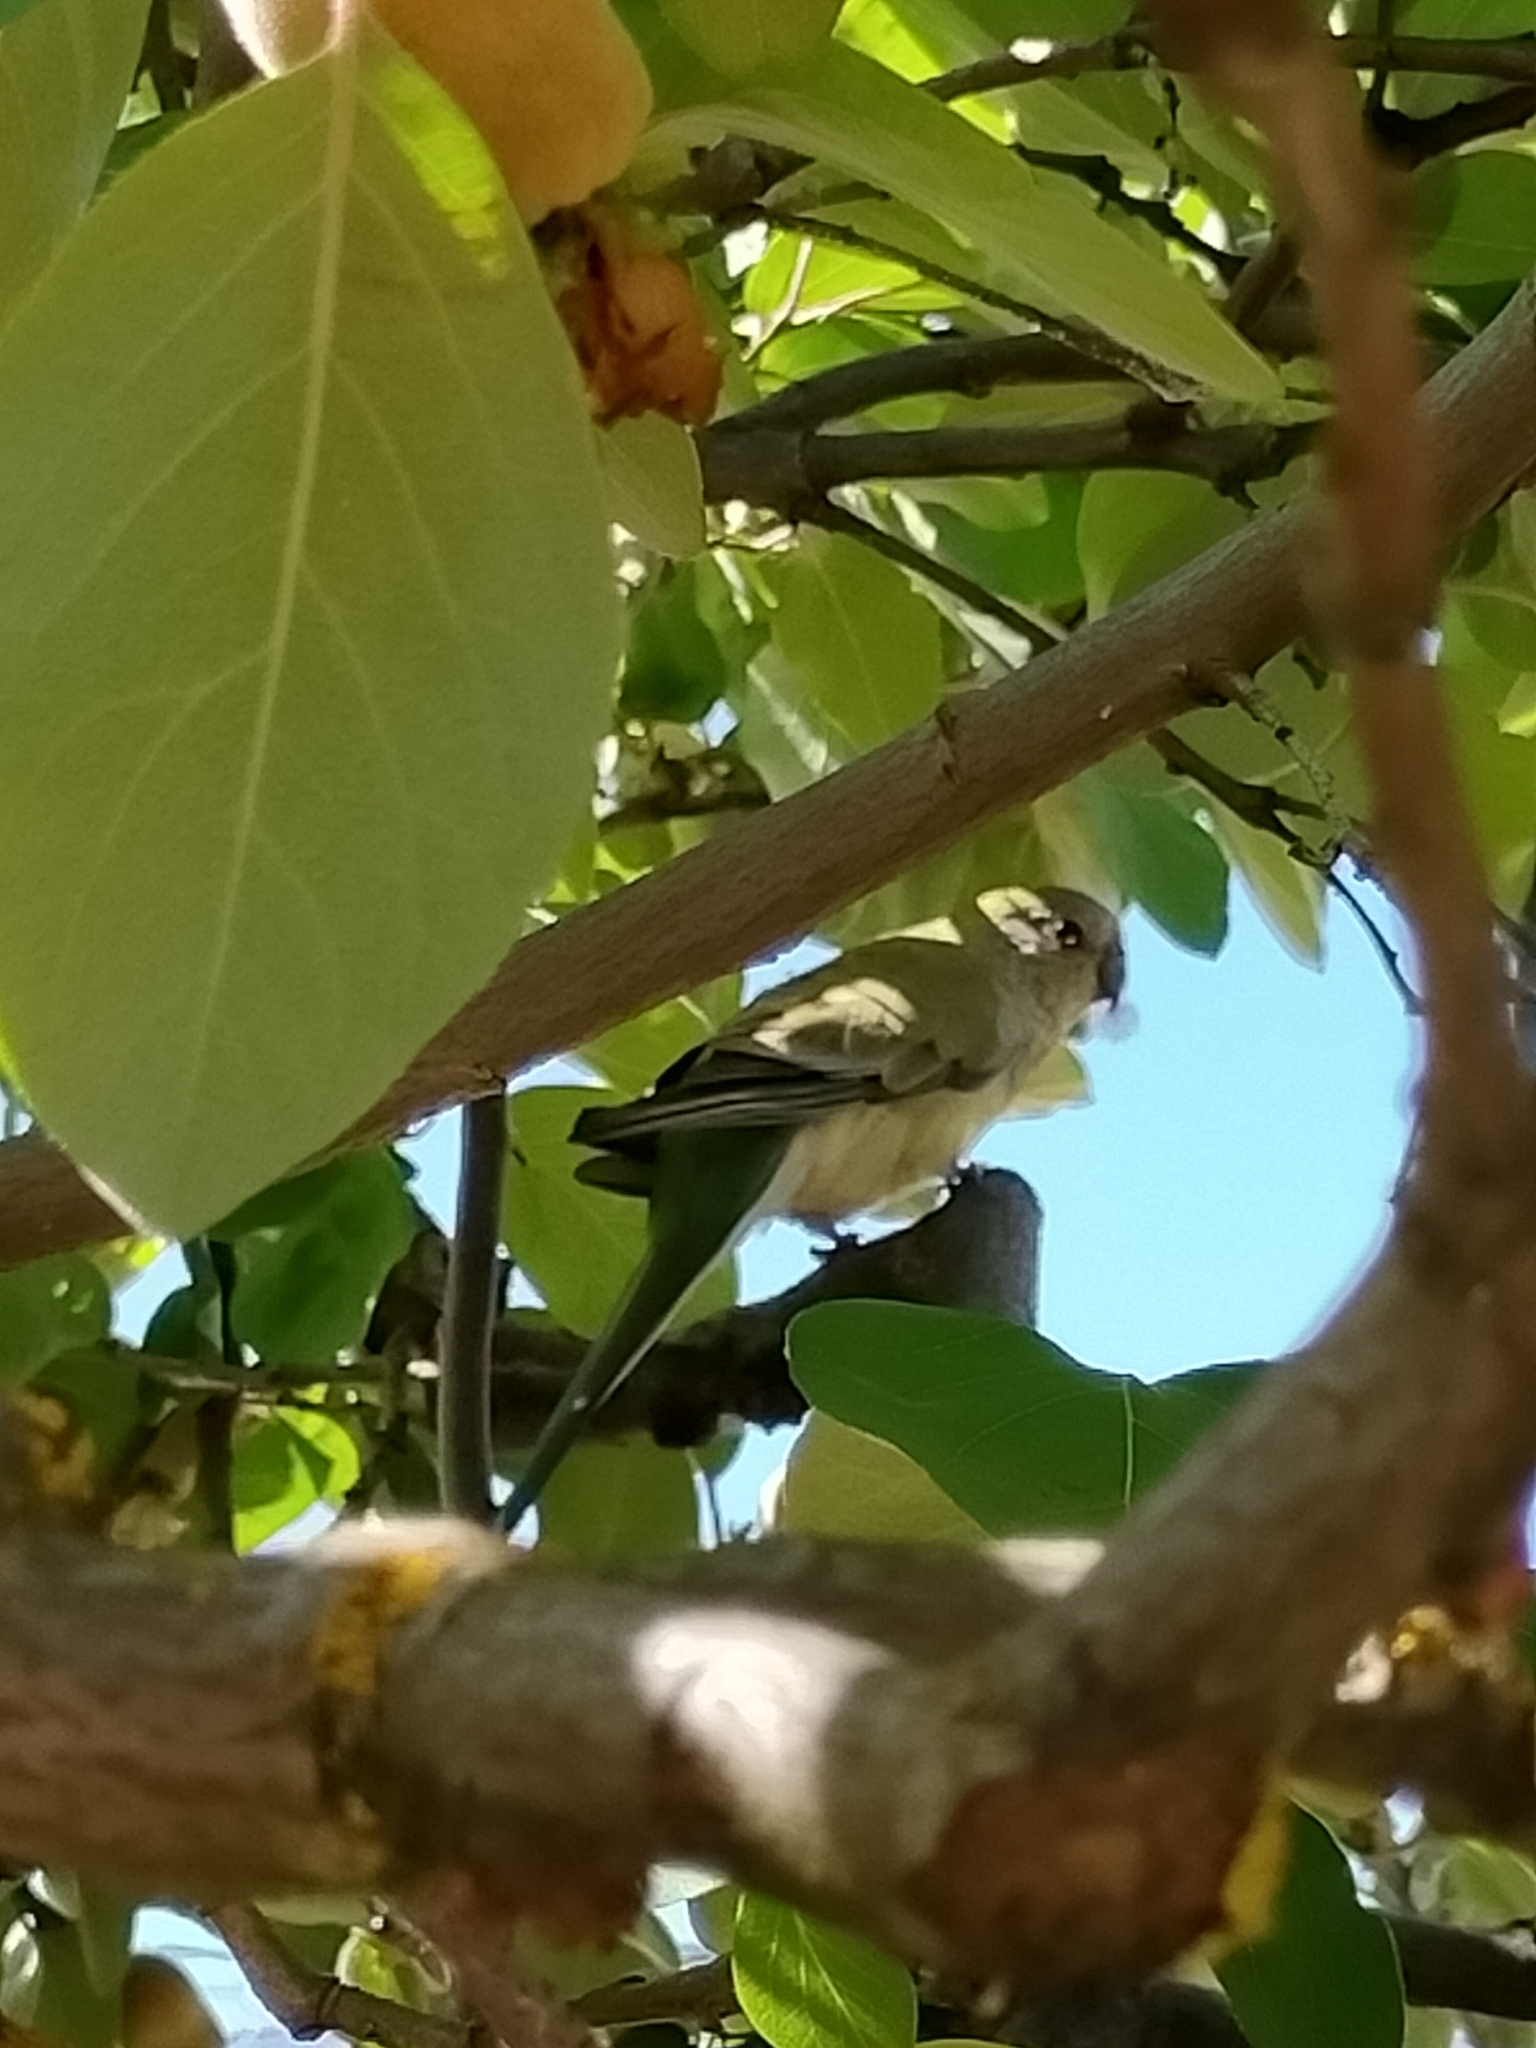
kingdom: Animalia
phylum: Chordata
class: Aves
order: Psittaciformes
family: Psittacidae
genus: Psephotus
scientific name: Psephotus haematonotus
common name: Red-rumped parrot
